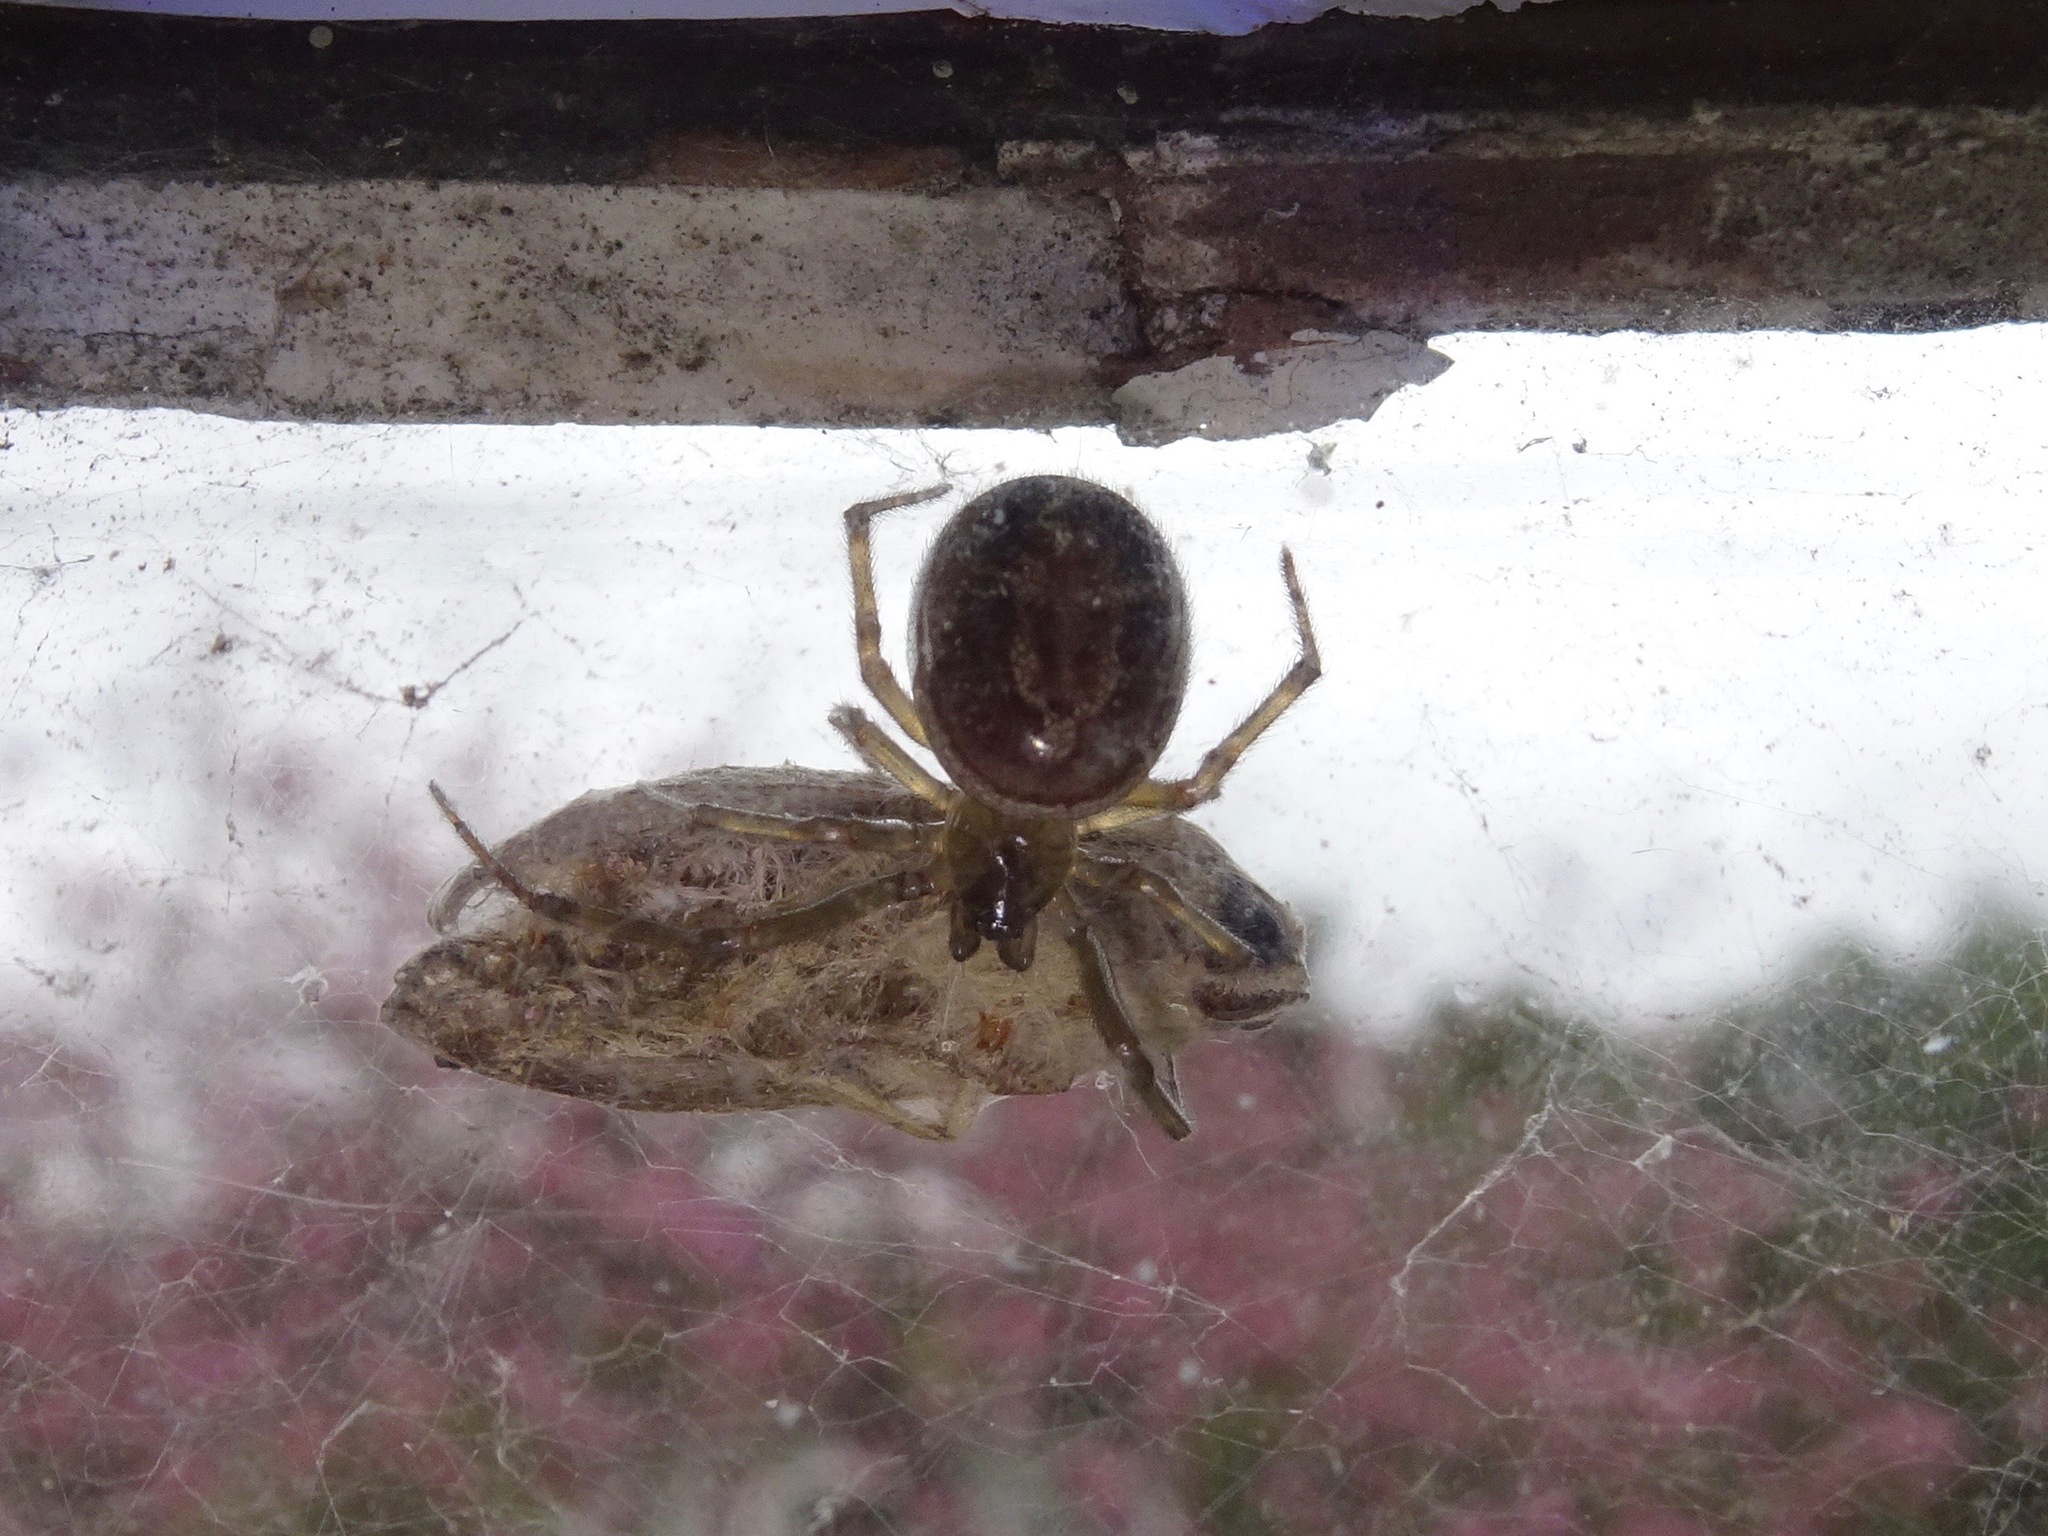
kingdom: Animalia
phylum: Arthropoda
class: Arachnida
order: Araneae
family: Theridiidae
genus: Steatoda
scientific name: Steatoda nobilis
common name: Cobweb weaver
